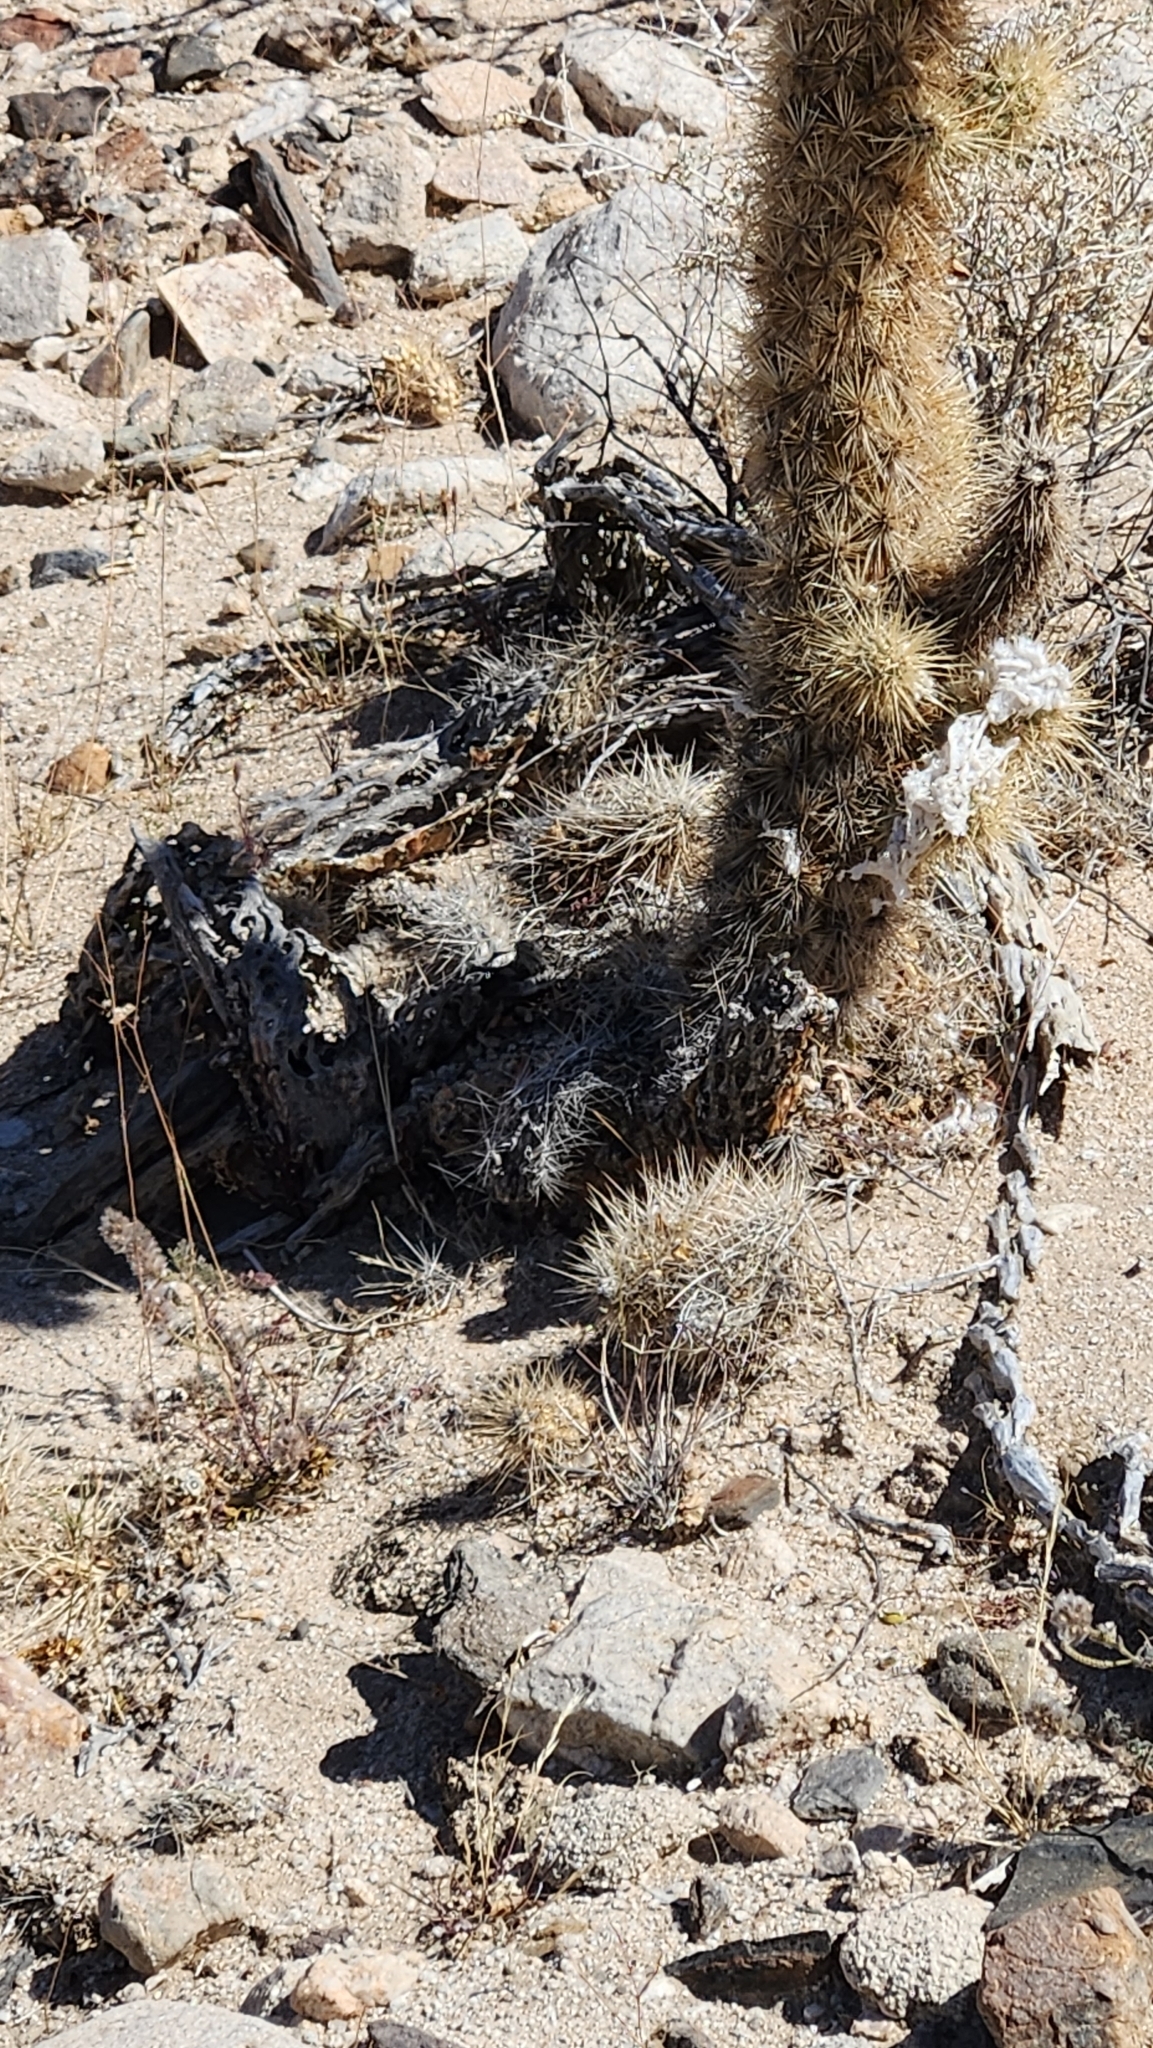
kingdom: Plantae
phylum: Tracheophyta
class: Magnoliopsida
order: Caryophyllales
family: Cactaceae
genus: Cylindropuntia
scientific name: Cylindropuntia alcahes
